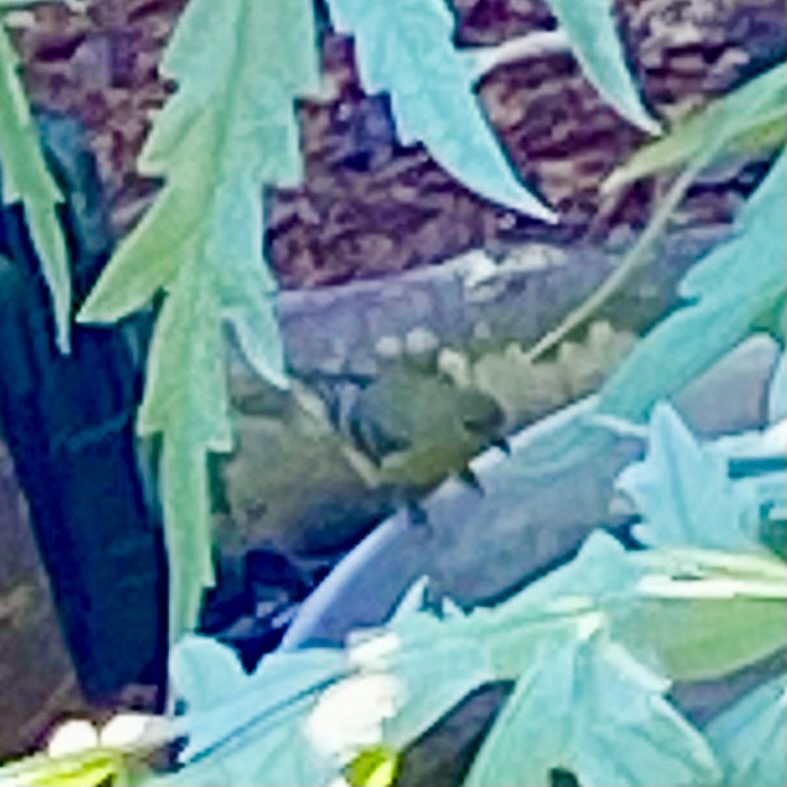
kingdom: Animalia
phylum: Chordata
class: Aves
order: Passeriformes
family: Fringillidae
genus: Spinus
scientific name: Spinus psaltria
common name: Lesser goldfinch
